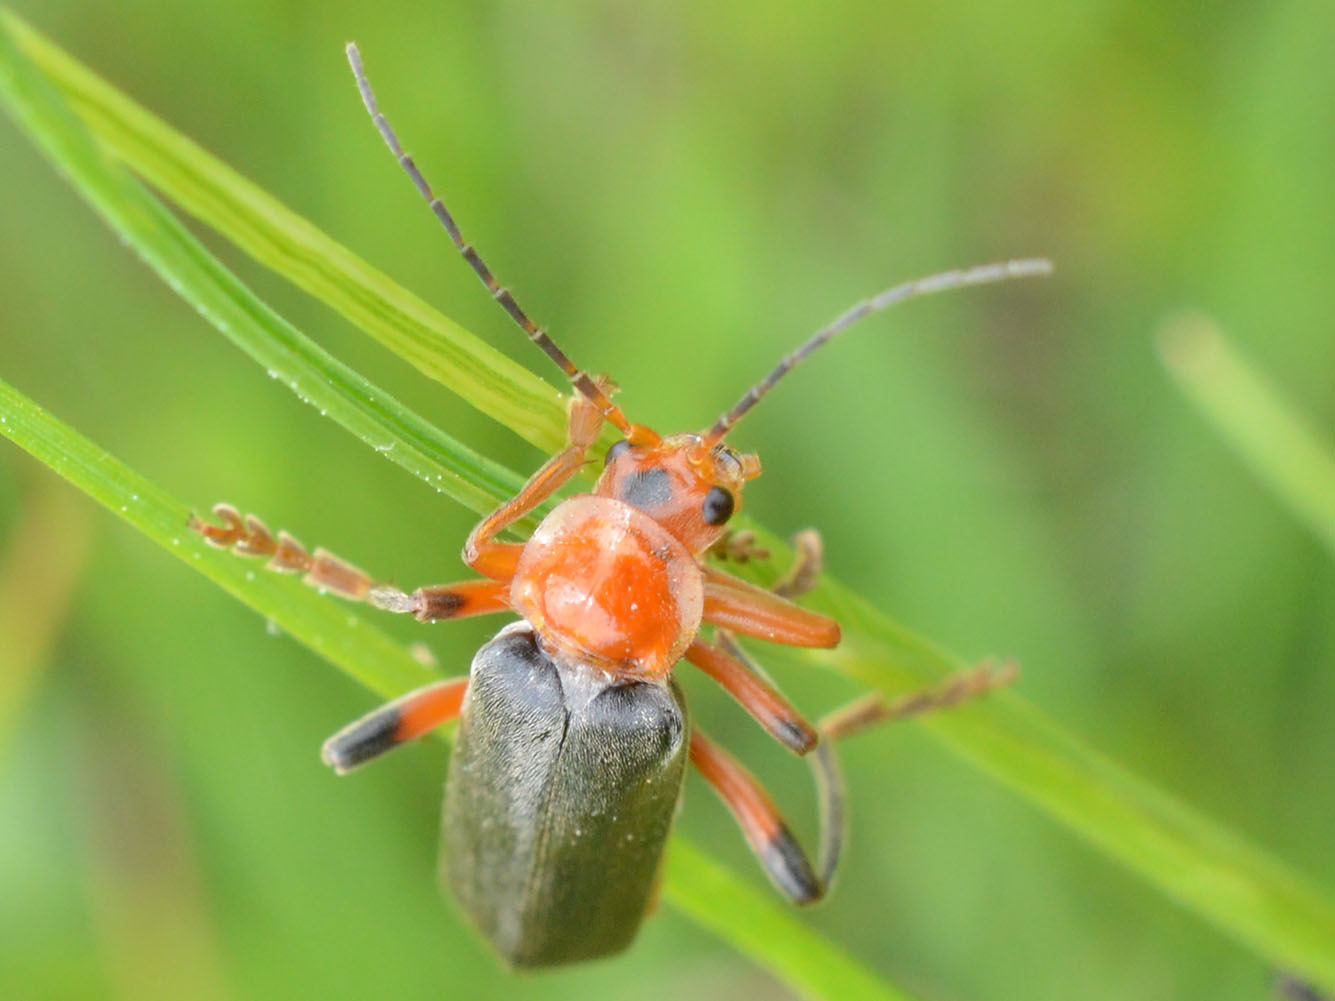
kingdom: Animalia
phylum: Arthropoda
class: Insecta
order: Coleoptera
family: Cantharidae
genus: Cantharis
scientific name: Cantharis livida
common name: Livid soldier beetle
